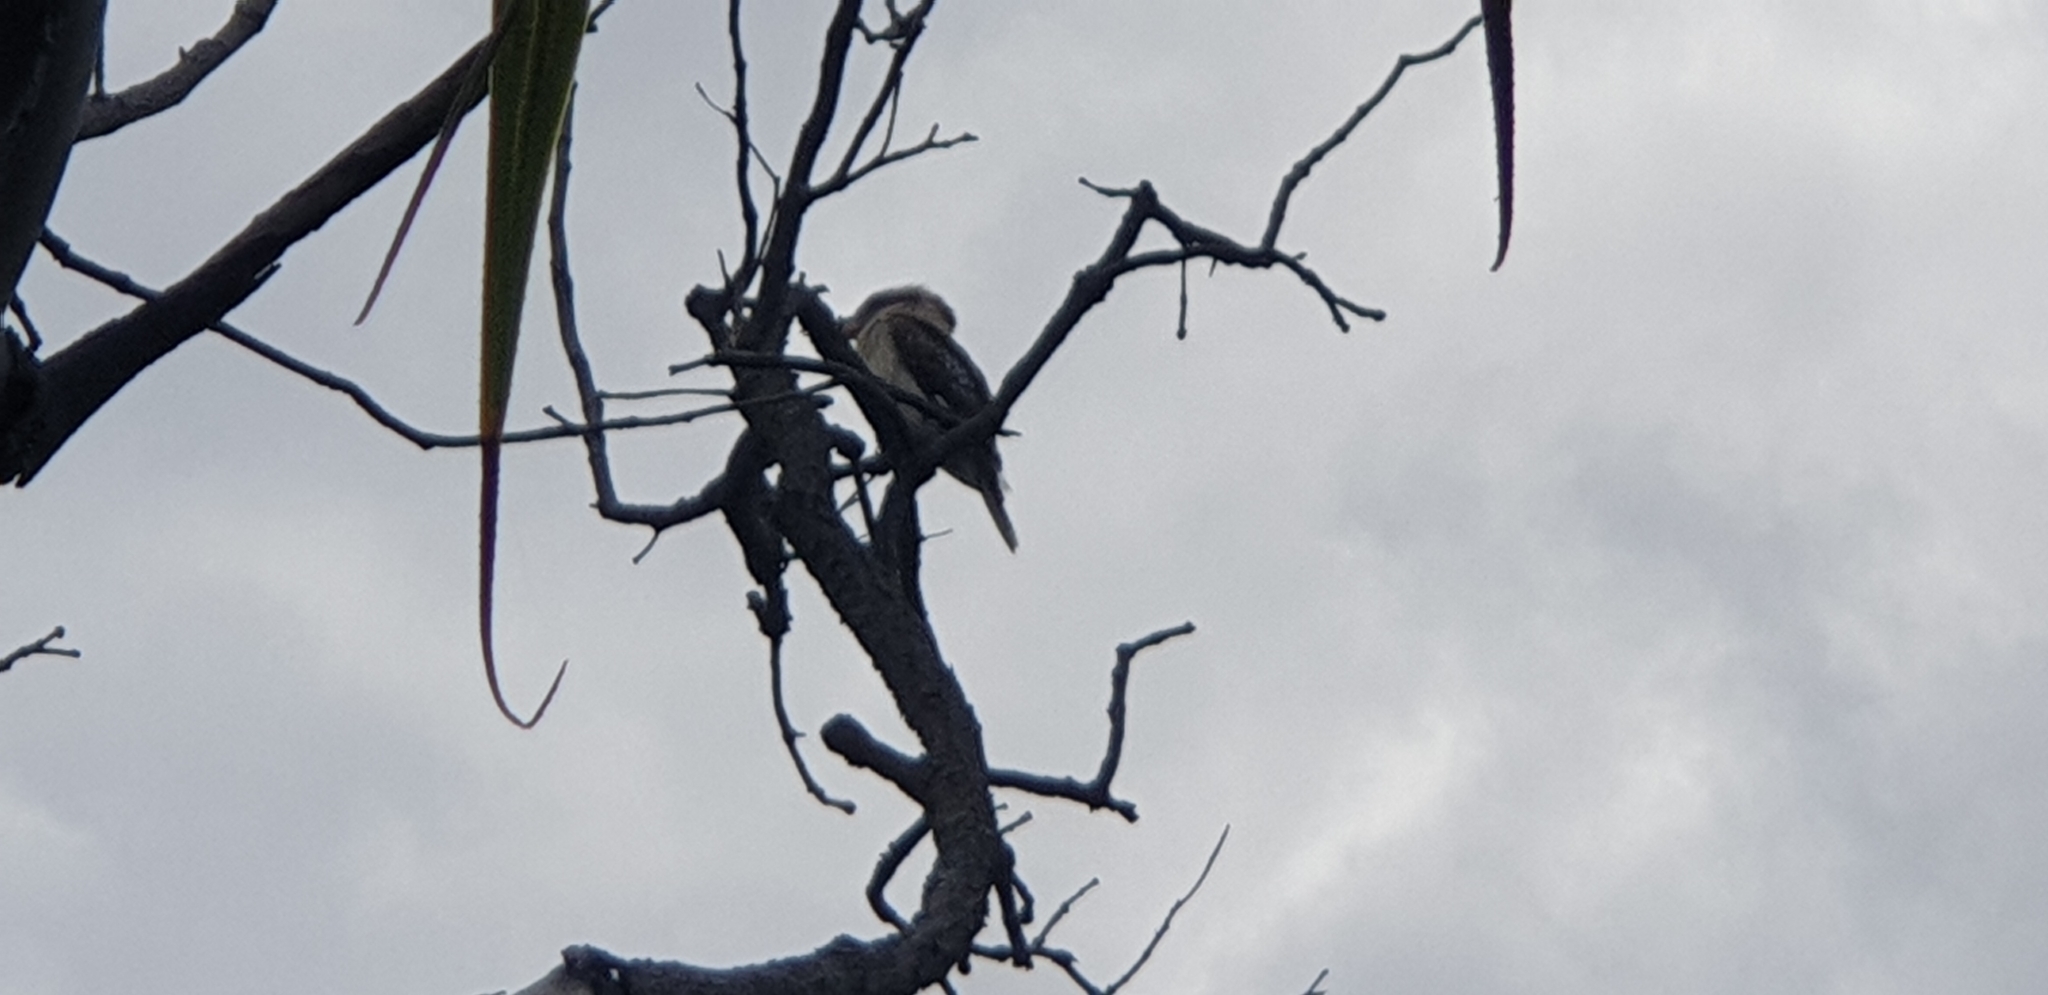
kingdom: Animalia
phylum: Chordata
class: Aves
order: Coraciiformes
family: Alcedinidae
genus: Dacelo
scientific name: Dacelo novaeguineae
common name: Laughing kookaburra
